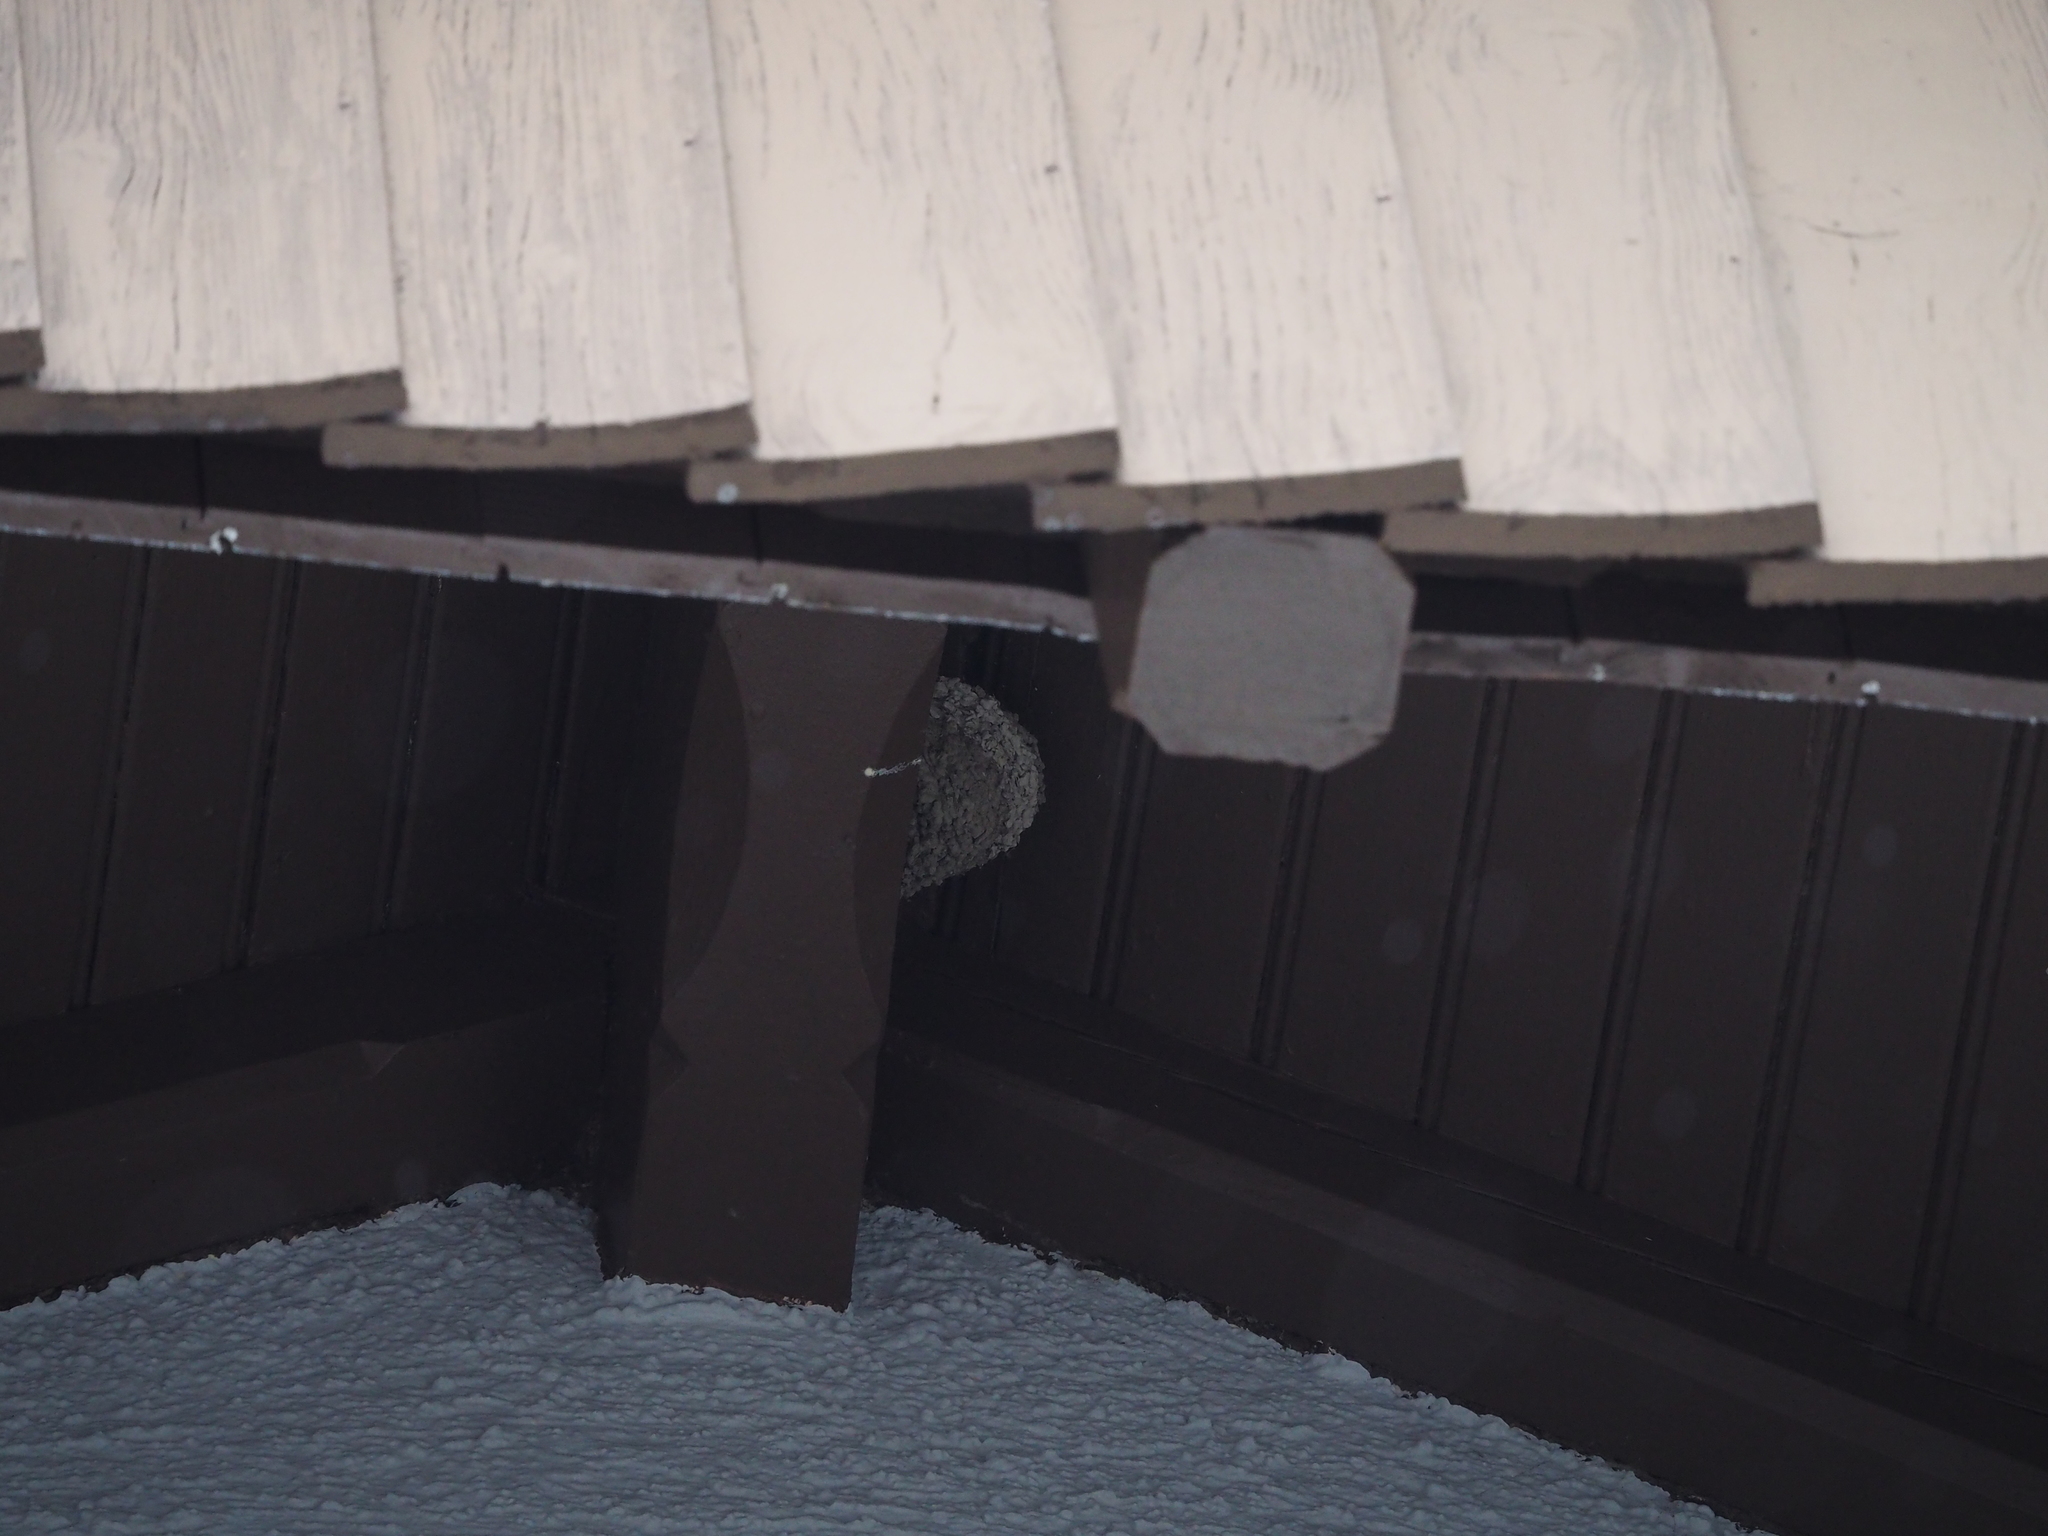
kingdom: Animalia
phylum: Chordata
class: Aves
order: Passeriformes
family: Hirundinidae
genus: Ptyonoprogne
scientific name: Ptyonoprogne rupestris
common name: Eurasian crag martin
